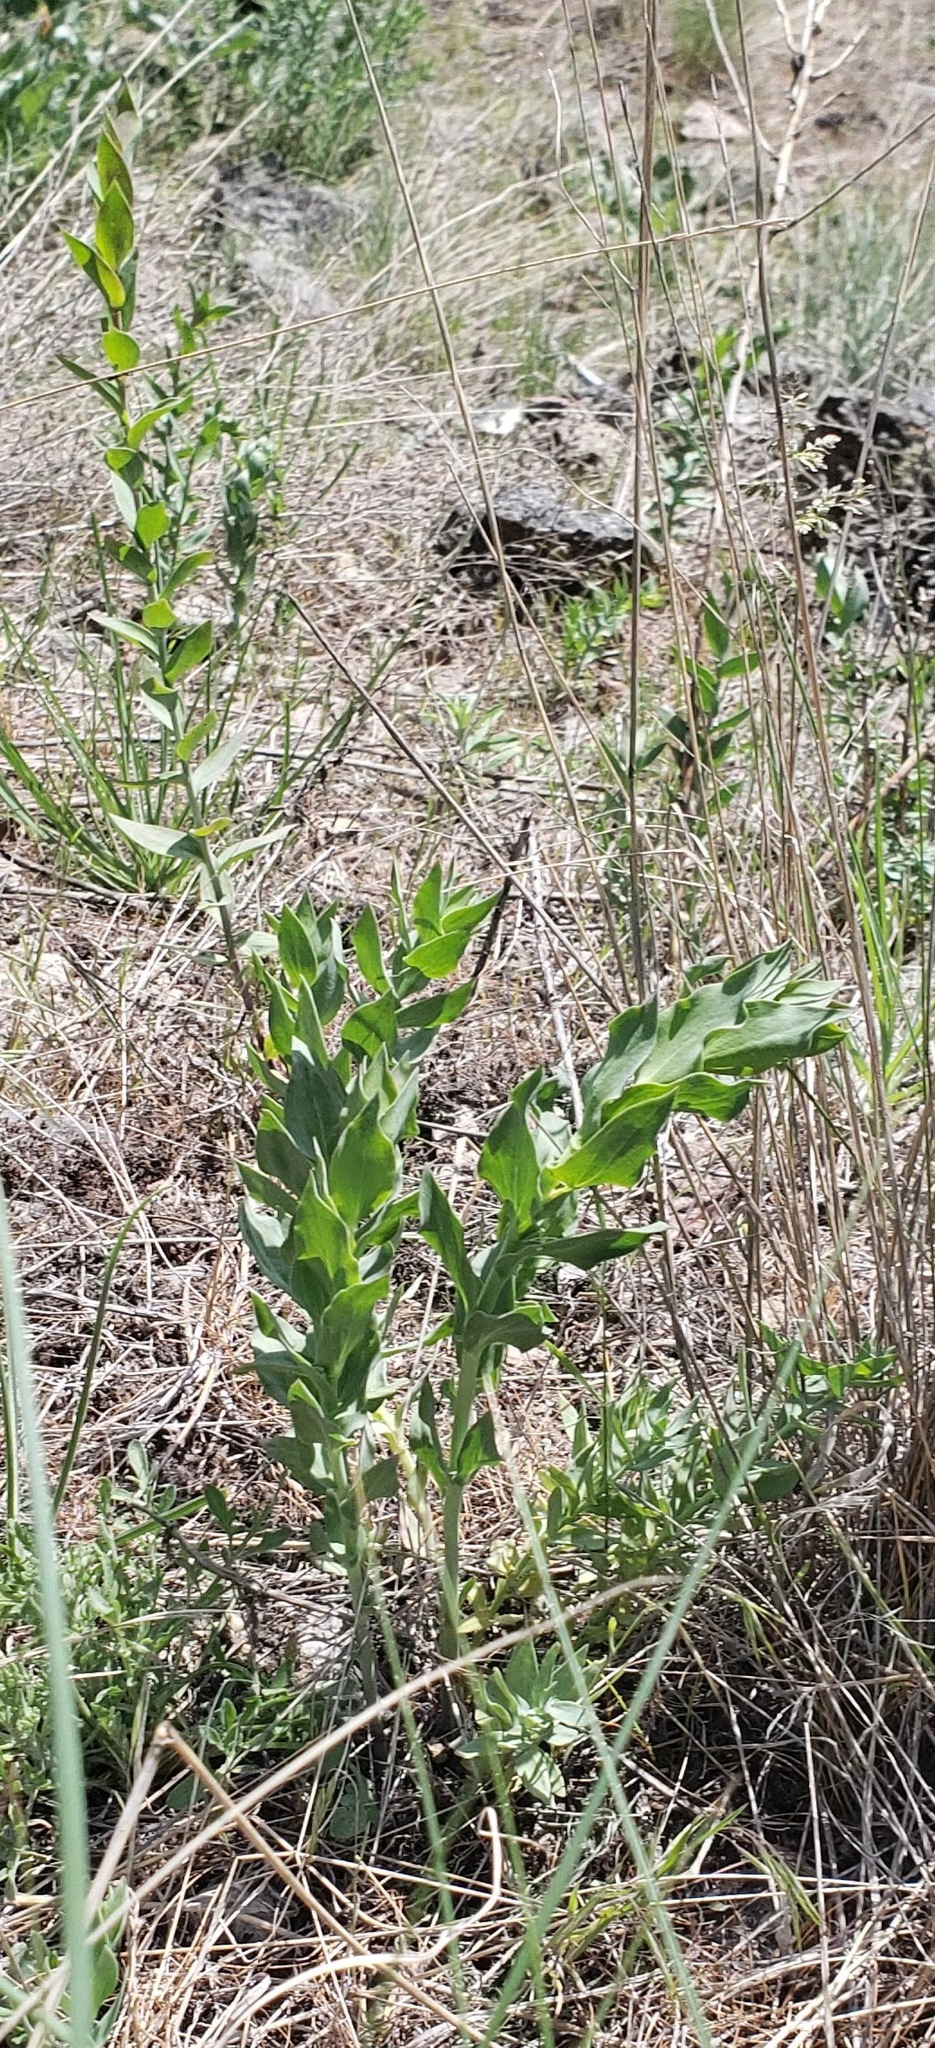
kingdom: Plantae
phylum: Tracheophyta
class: Magnoliopsida
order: Lamiales
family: Plantaginaceae
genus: Linaria
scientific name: Linaria dalmatica
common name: Dalmatian toadflax
